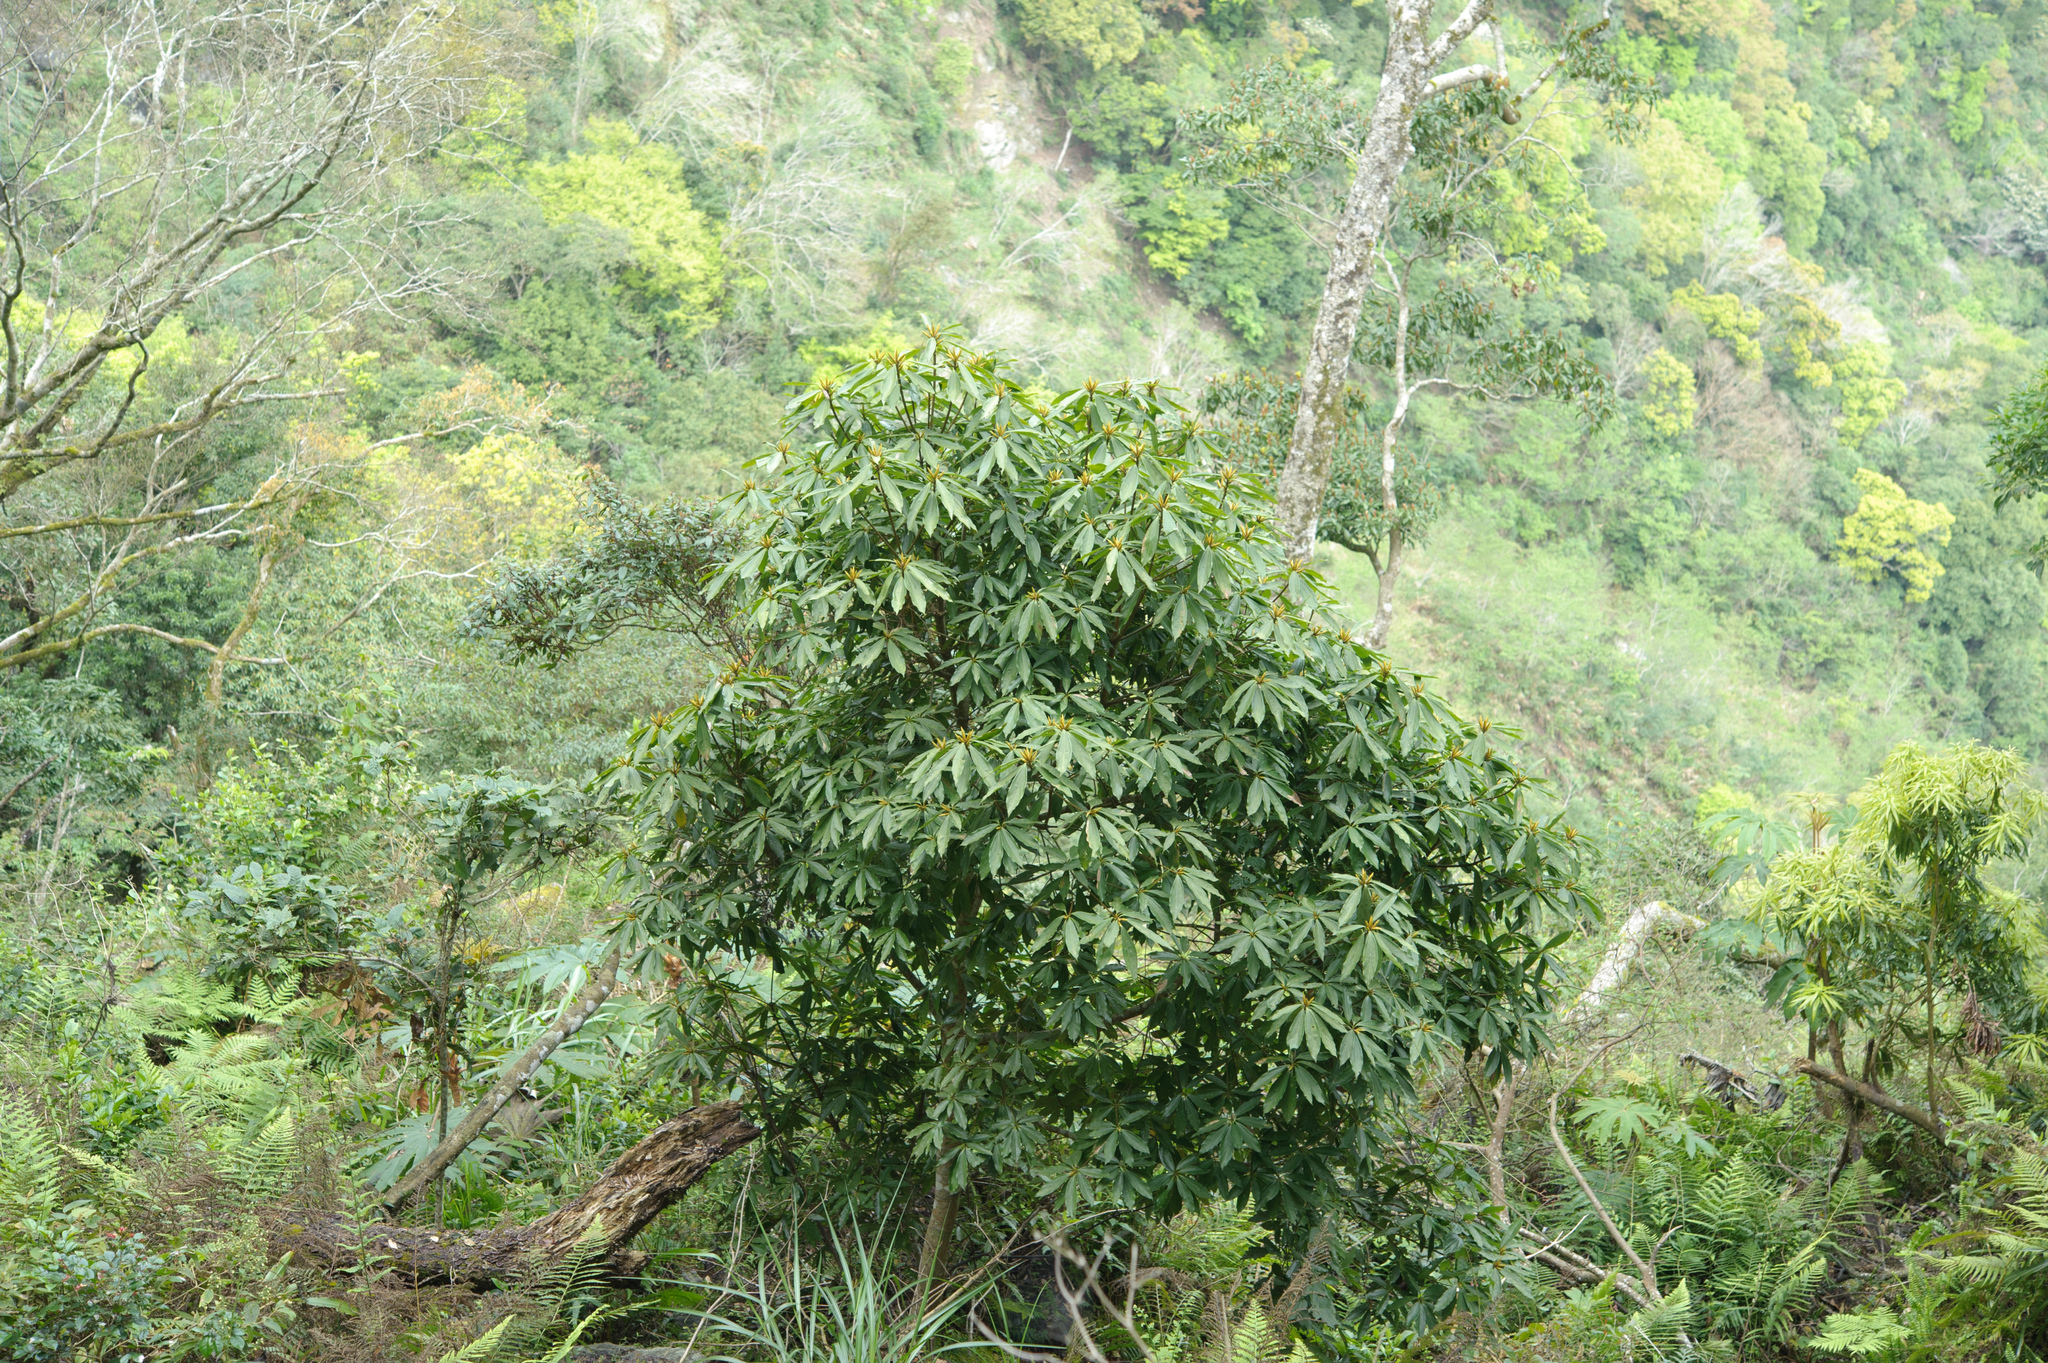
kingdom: Plantae
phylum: Tracheophyta
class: Magnoliopsida
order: Laurales
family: Lauraceae
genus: Neolitsea
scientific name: Neolitsea konishii
